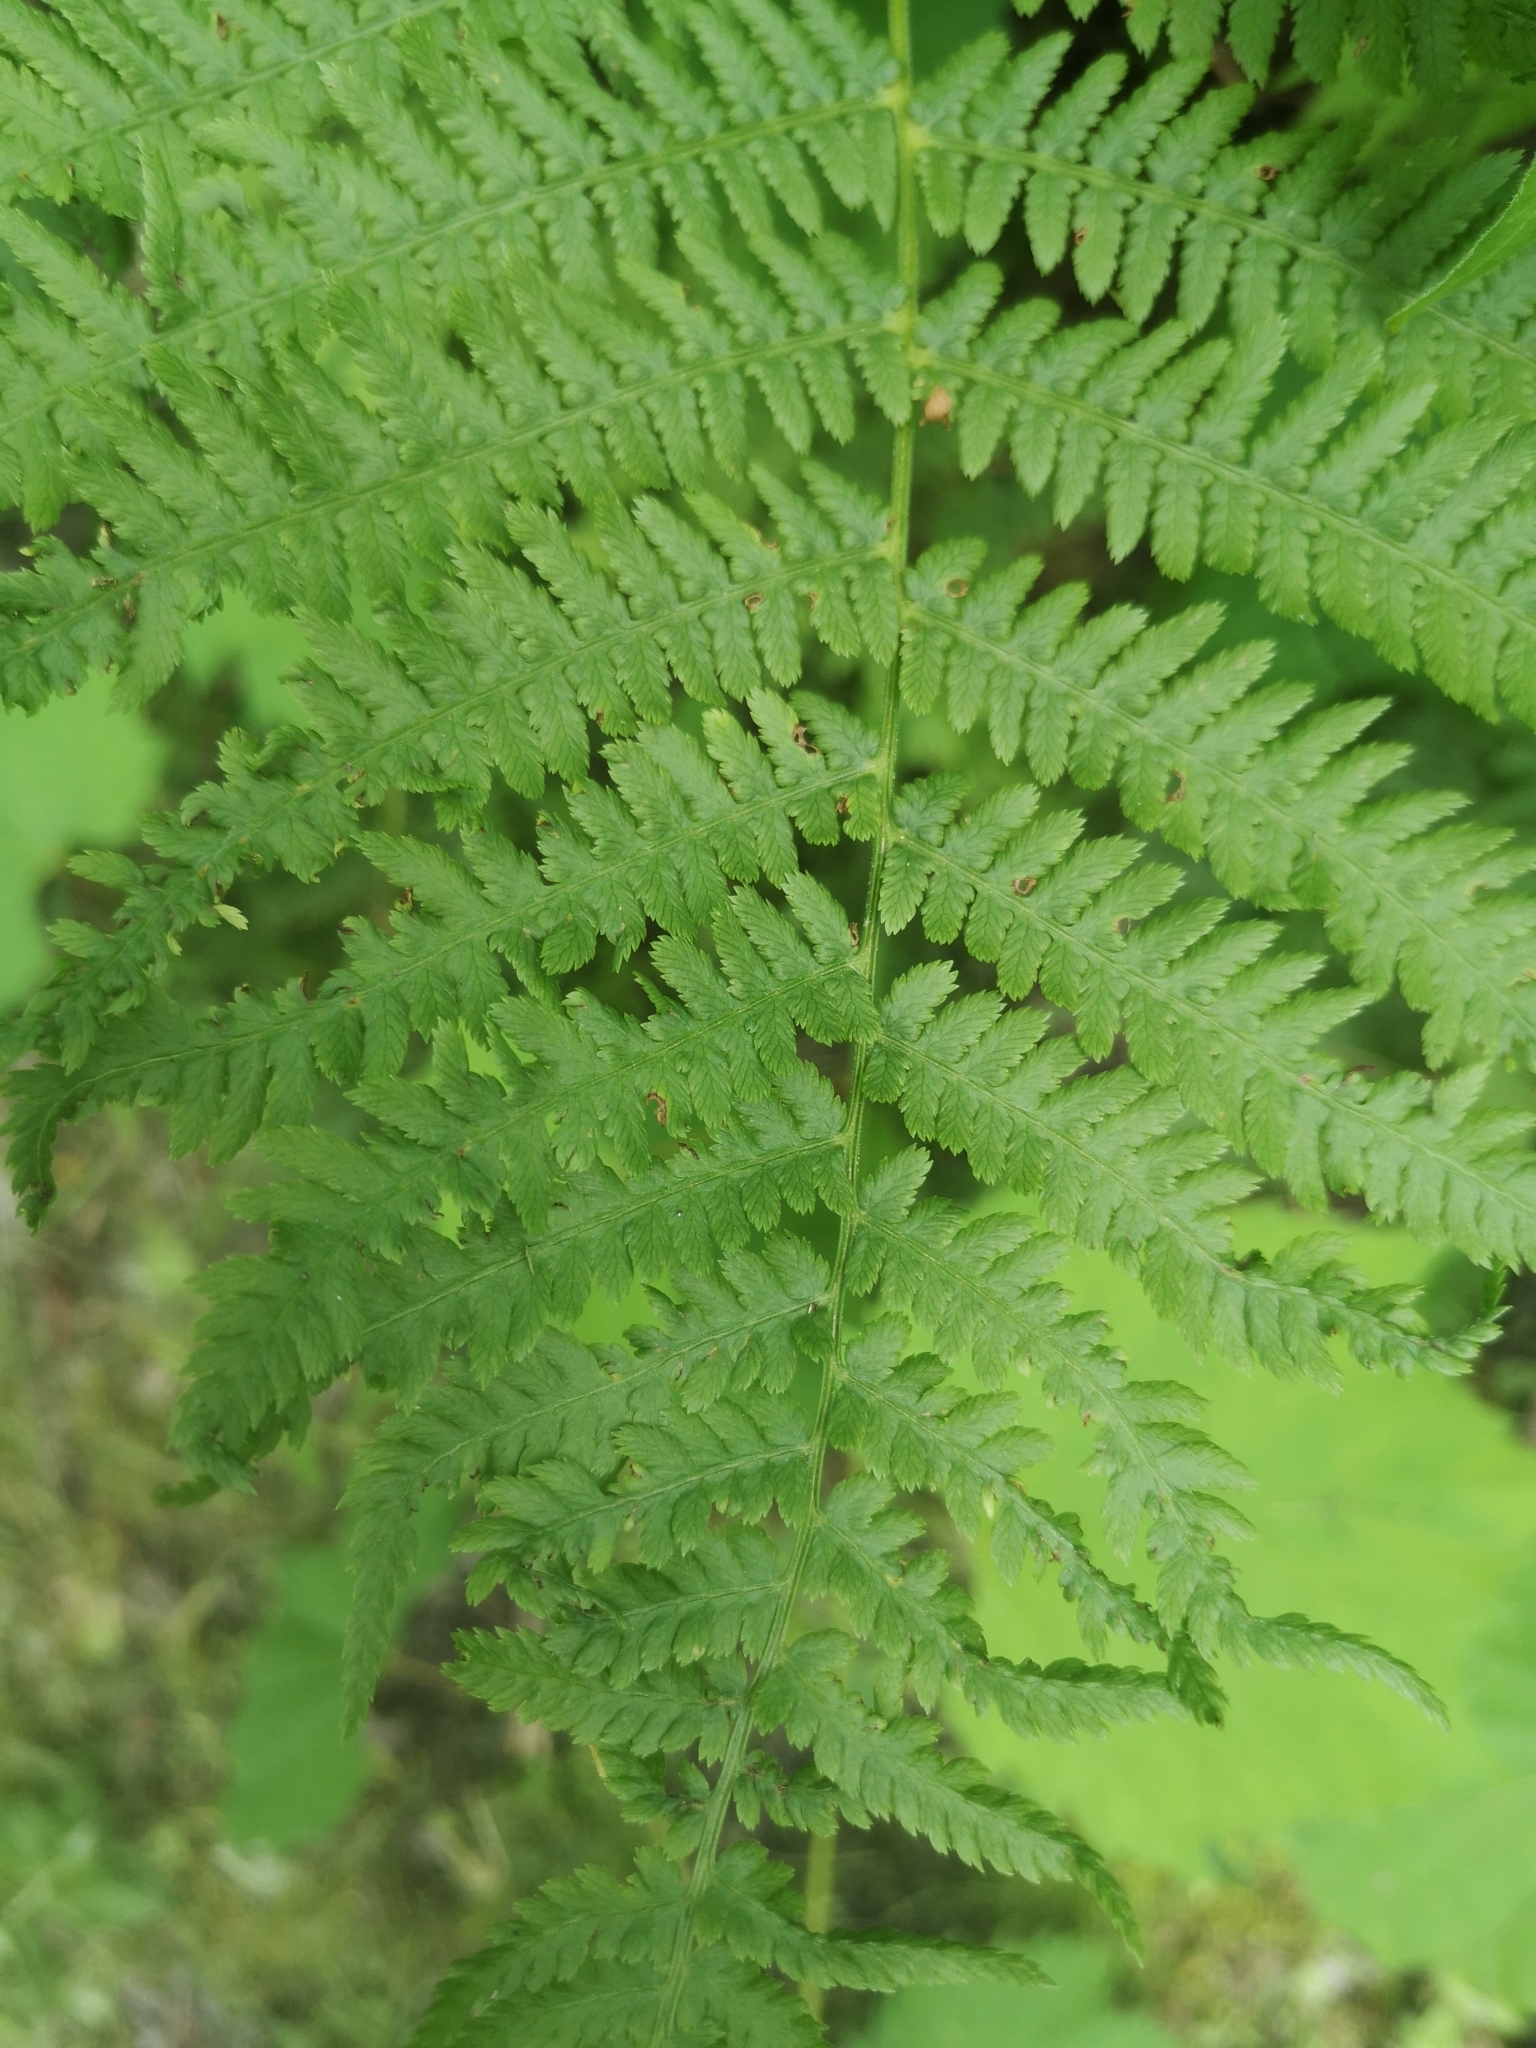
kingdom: Plantae
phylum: Tracheophyta
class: Polypodiopsida
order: Polypodiales
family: Athyriaceae
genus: Athyrium
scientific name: Athyrium angustum
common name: Northern lady fern
